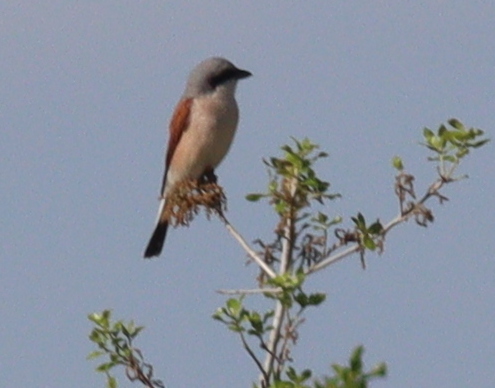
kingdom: Animalia
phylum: Chordata
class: Aves
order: Passeriformes
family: Laniidae
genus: Lanius
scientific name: Lanius collurio
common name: Red-backed shrike
